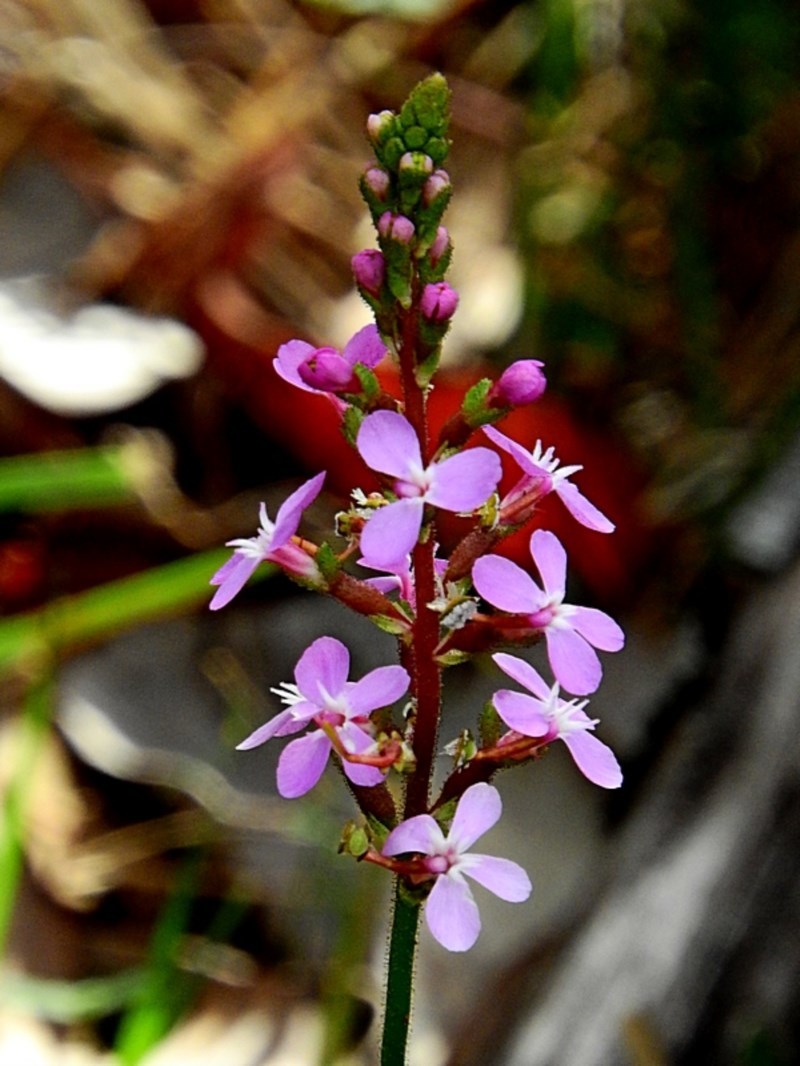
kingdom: Plantae
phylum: Tracheophyta
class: Magnoliopsida
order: Asterales
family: Stylidiaceae
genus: Stylidium
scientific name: Stylidium armeria
